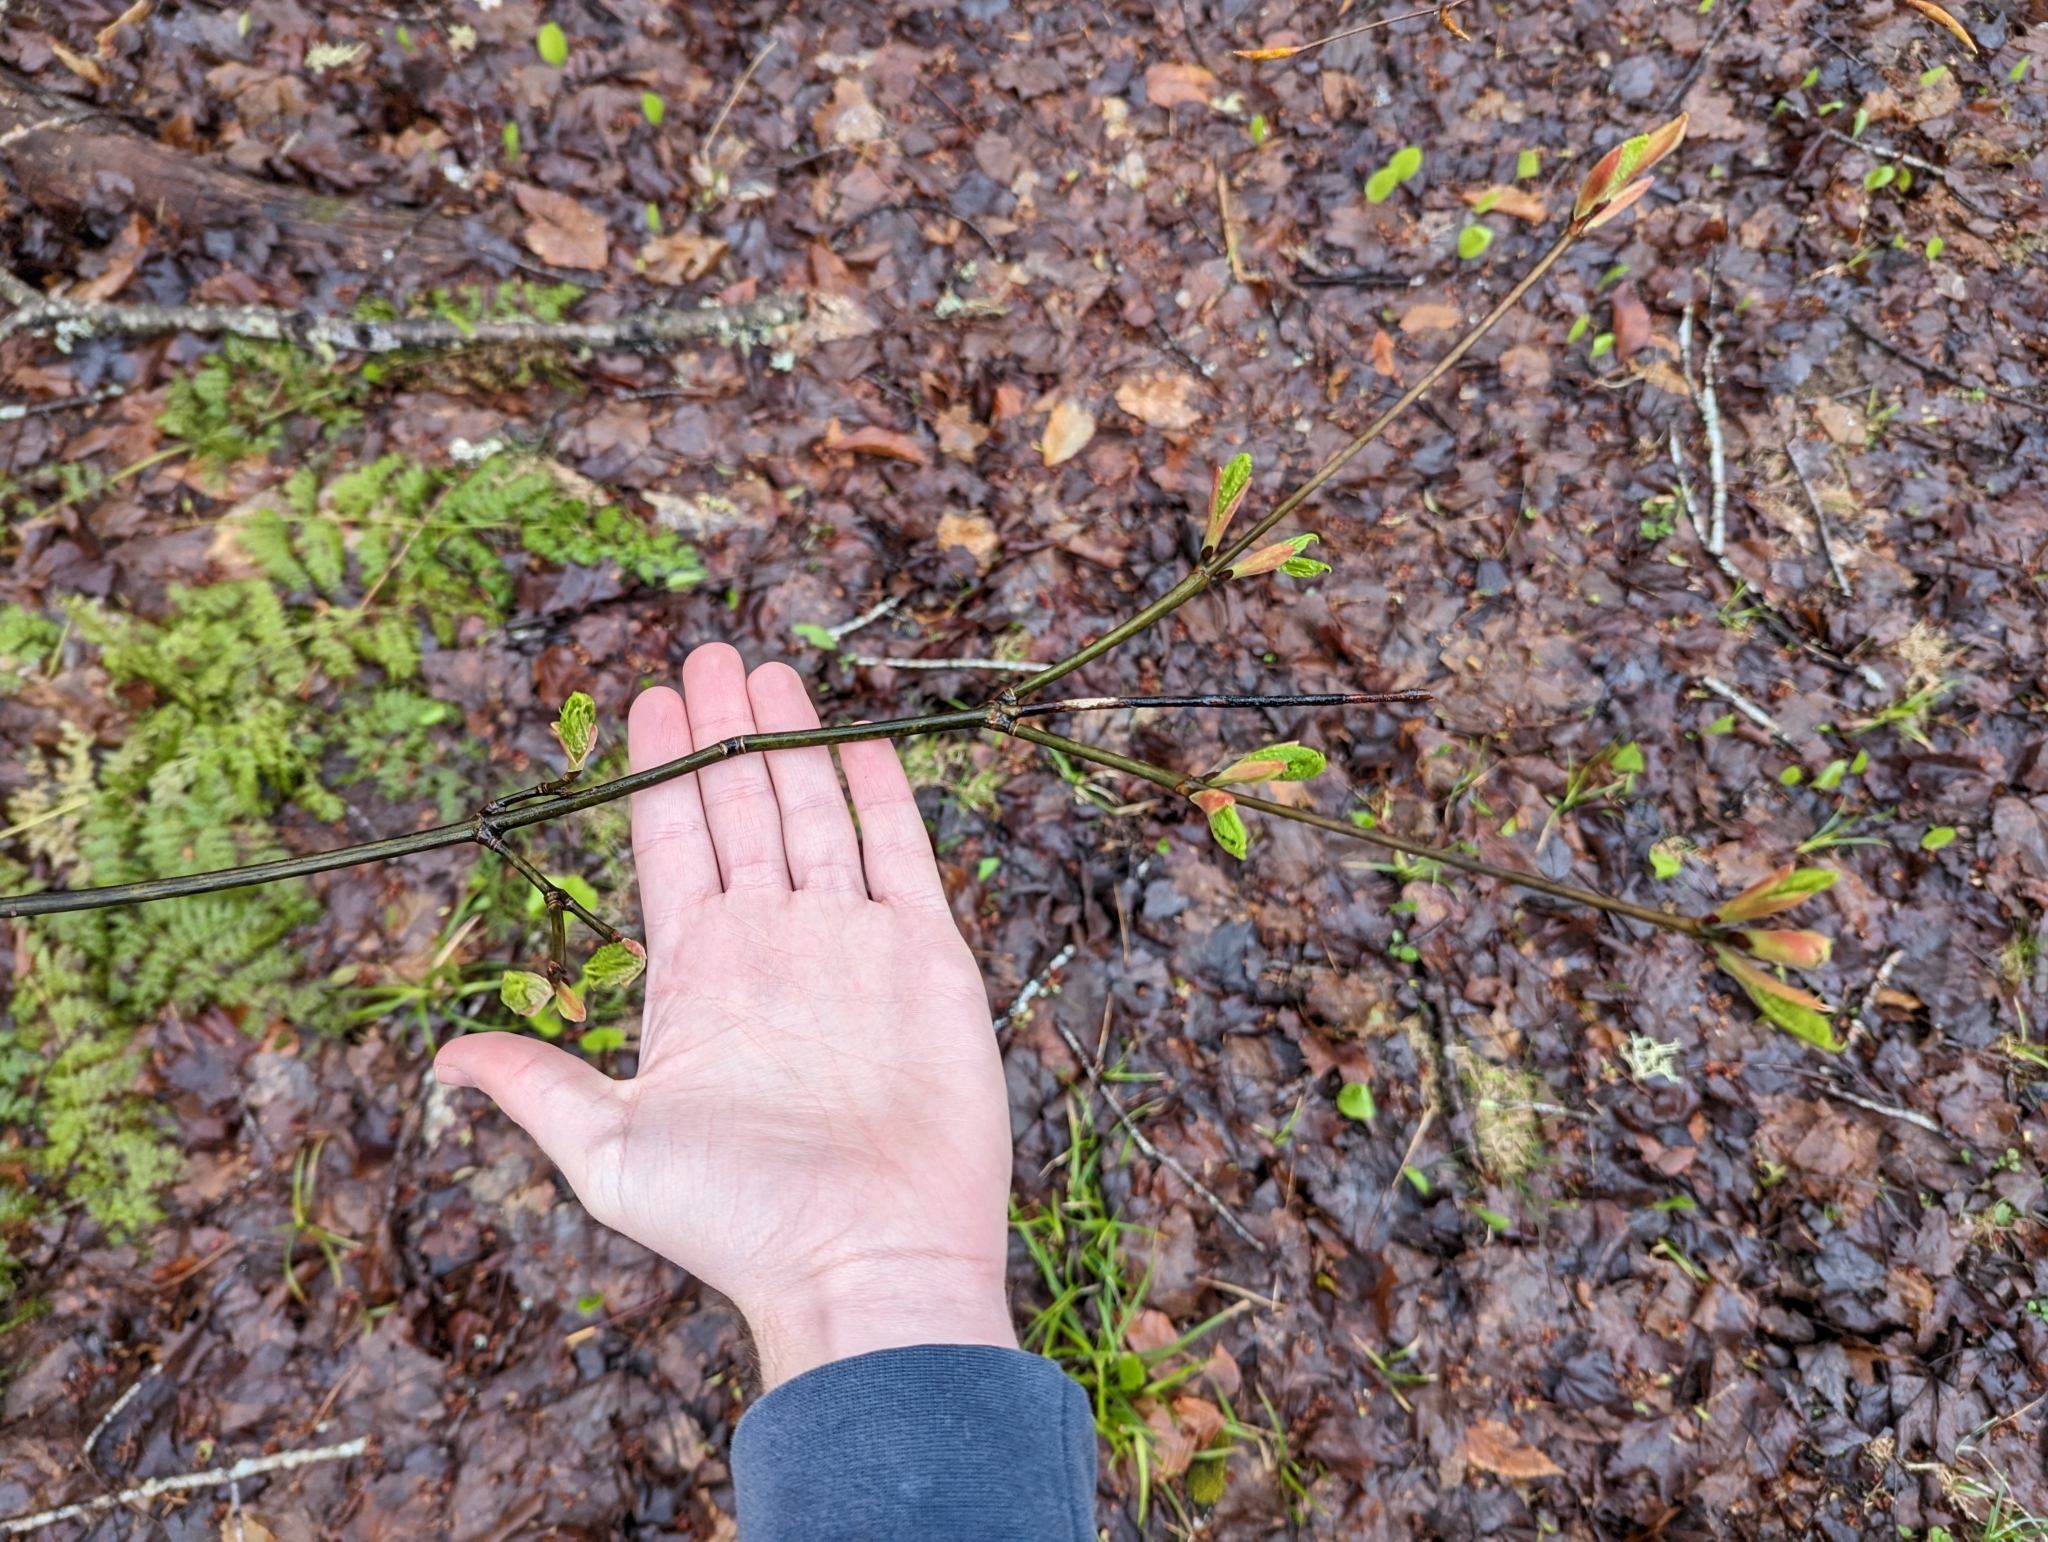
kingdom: Plantae
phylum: Tracheophyta
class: Magnoliopsida
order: Sapindales
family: Sapindaceae
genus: Acer
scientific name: Acer pensylvanicum
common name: Moosewood
